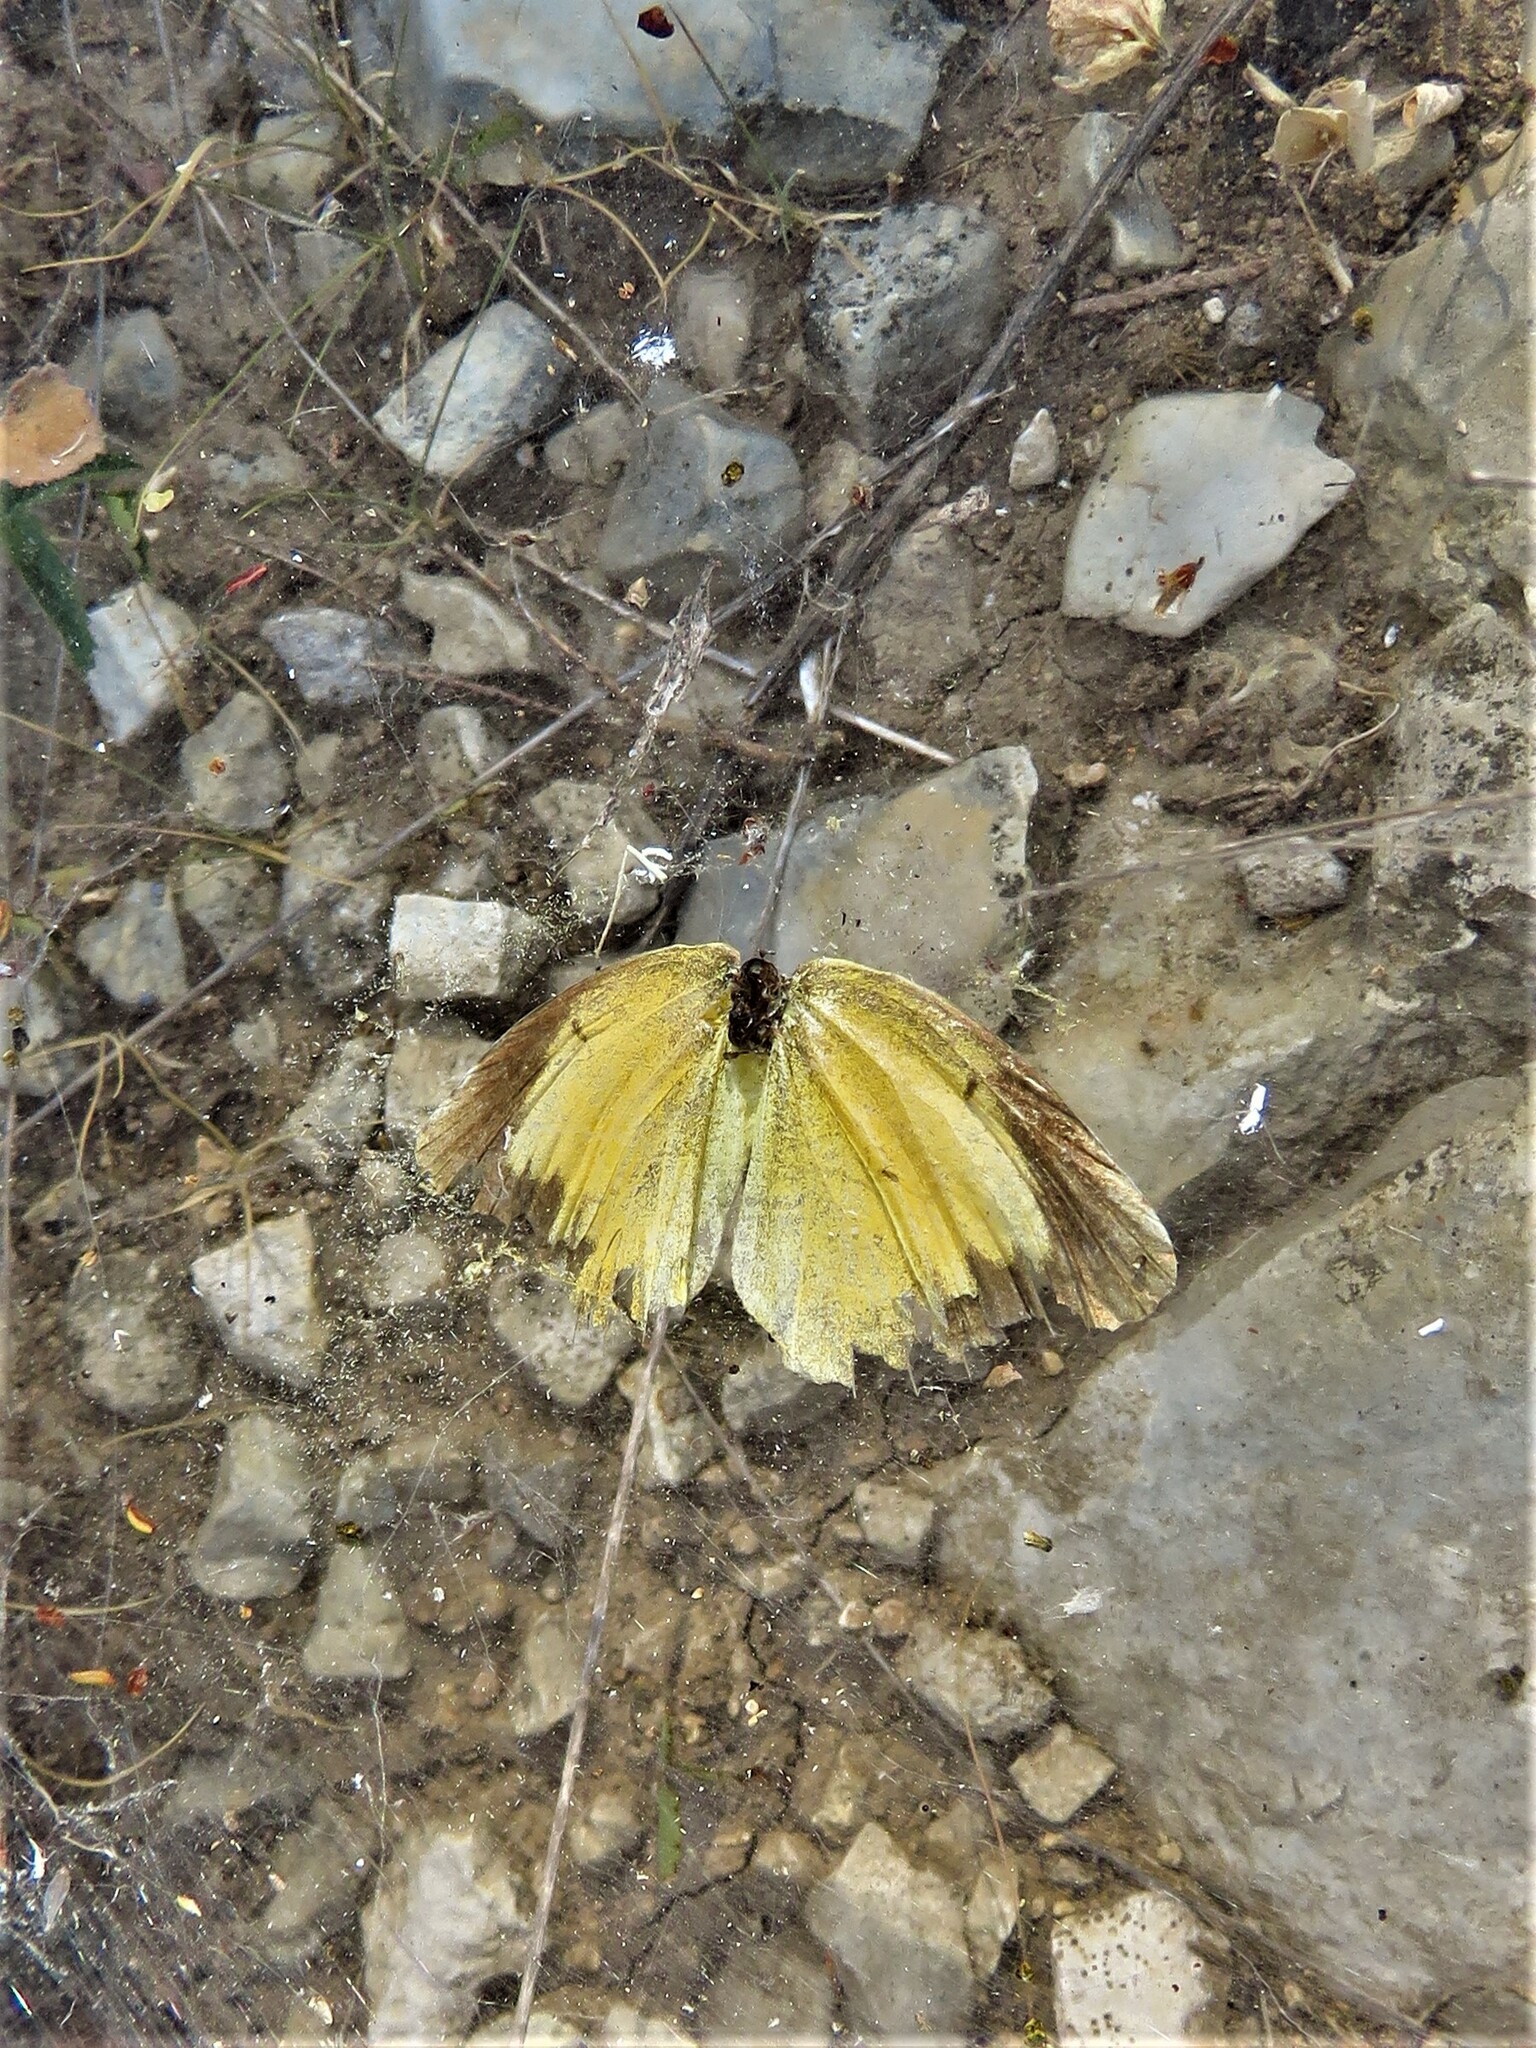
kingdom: Animalia
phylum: Arthropoda
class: Insecta
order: Lepidoptera
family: Pieridae
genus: Abaeis
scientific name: Abaeis nicippe
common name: Sleepy orange
